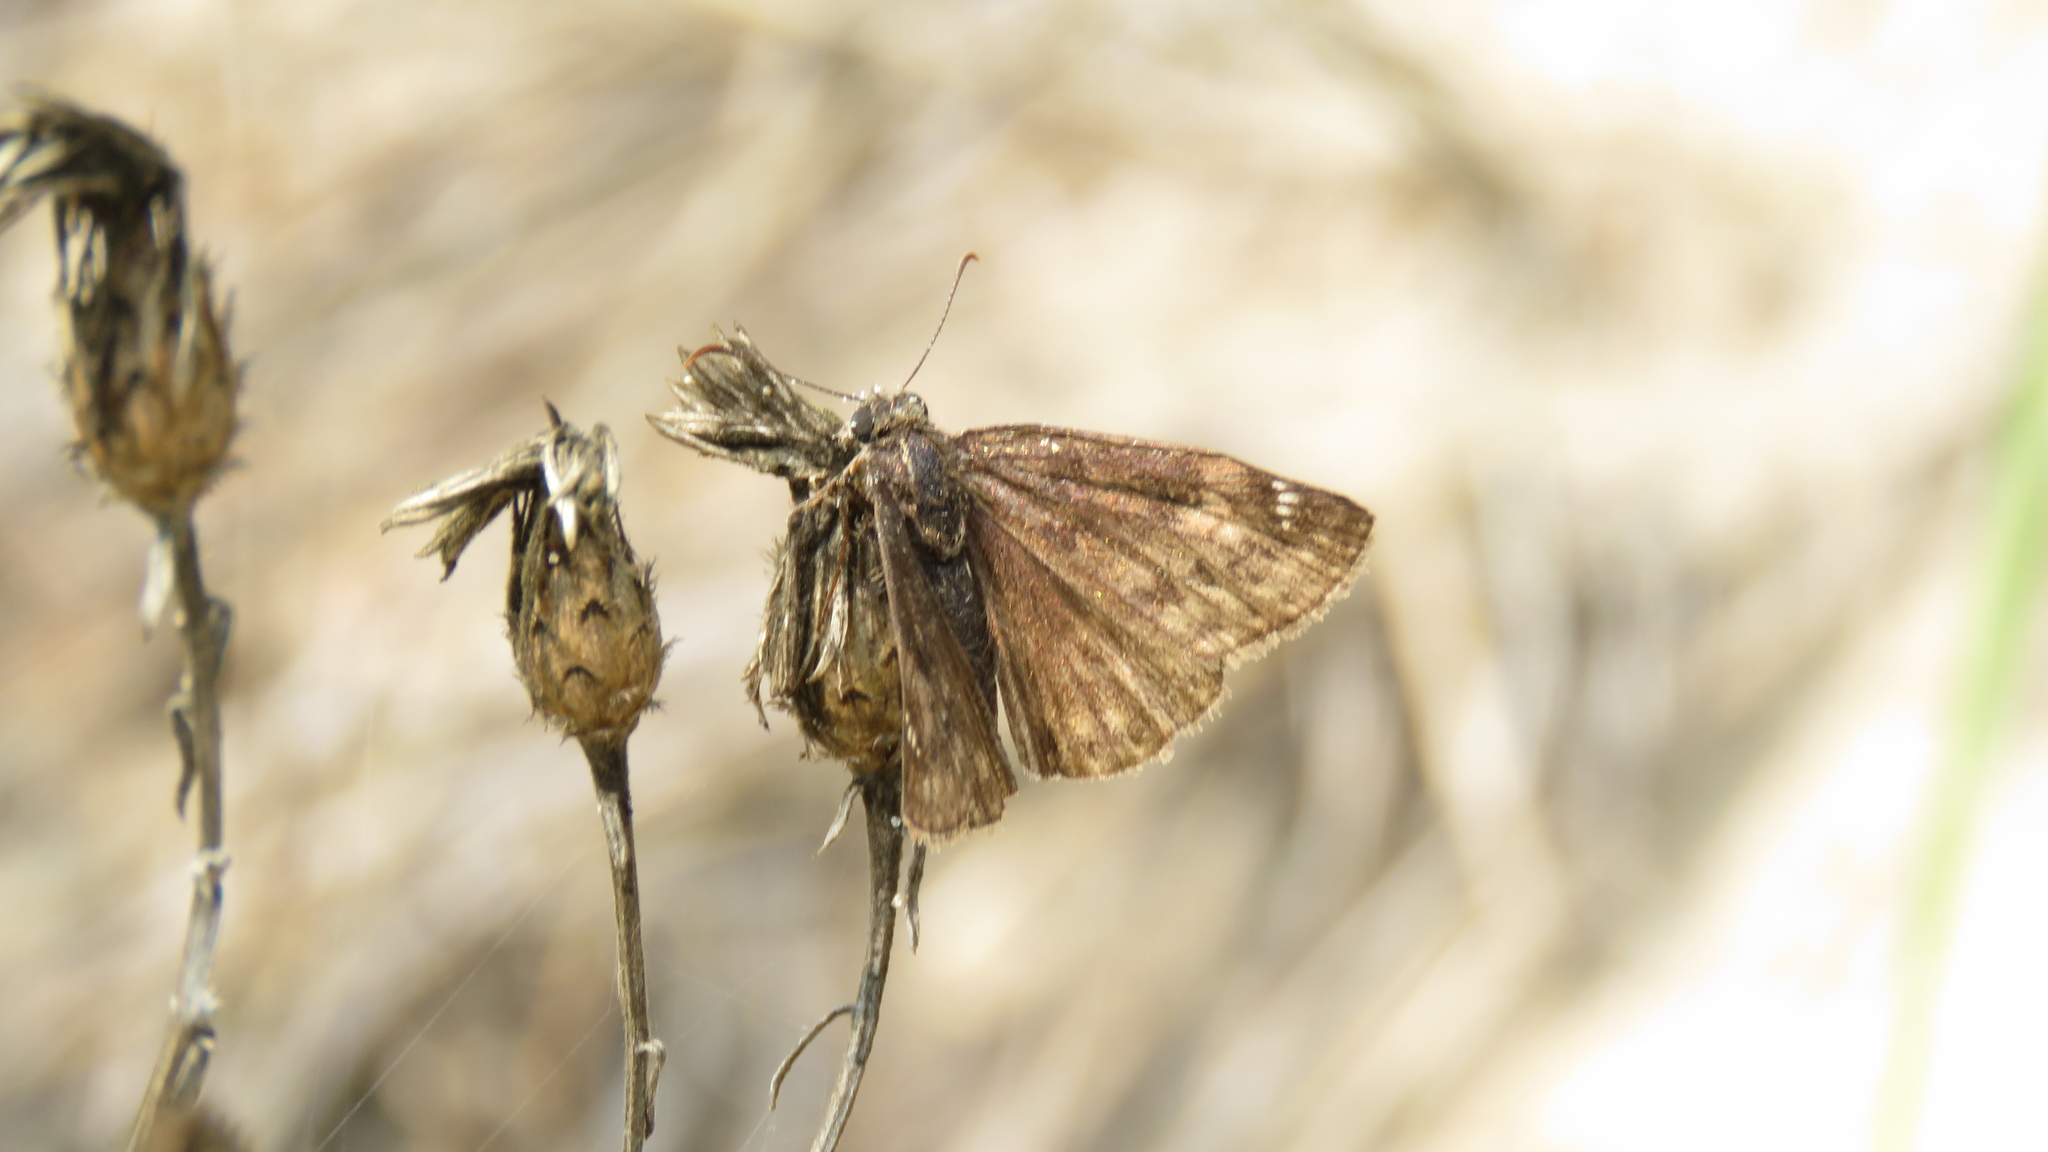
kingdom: Animalia
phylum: Arthropoda
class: Insecta
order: Lepidoptera
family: Hesperiidae
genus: Erynnis
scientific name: Erynnis baptisiae
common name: Wild indigo duskywing
